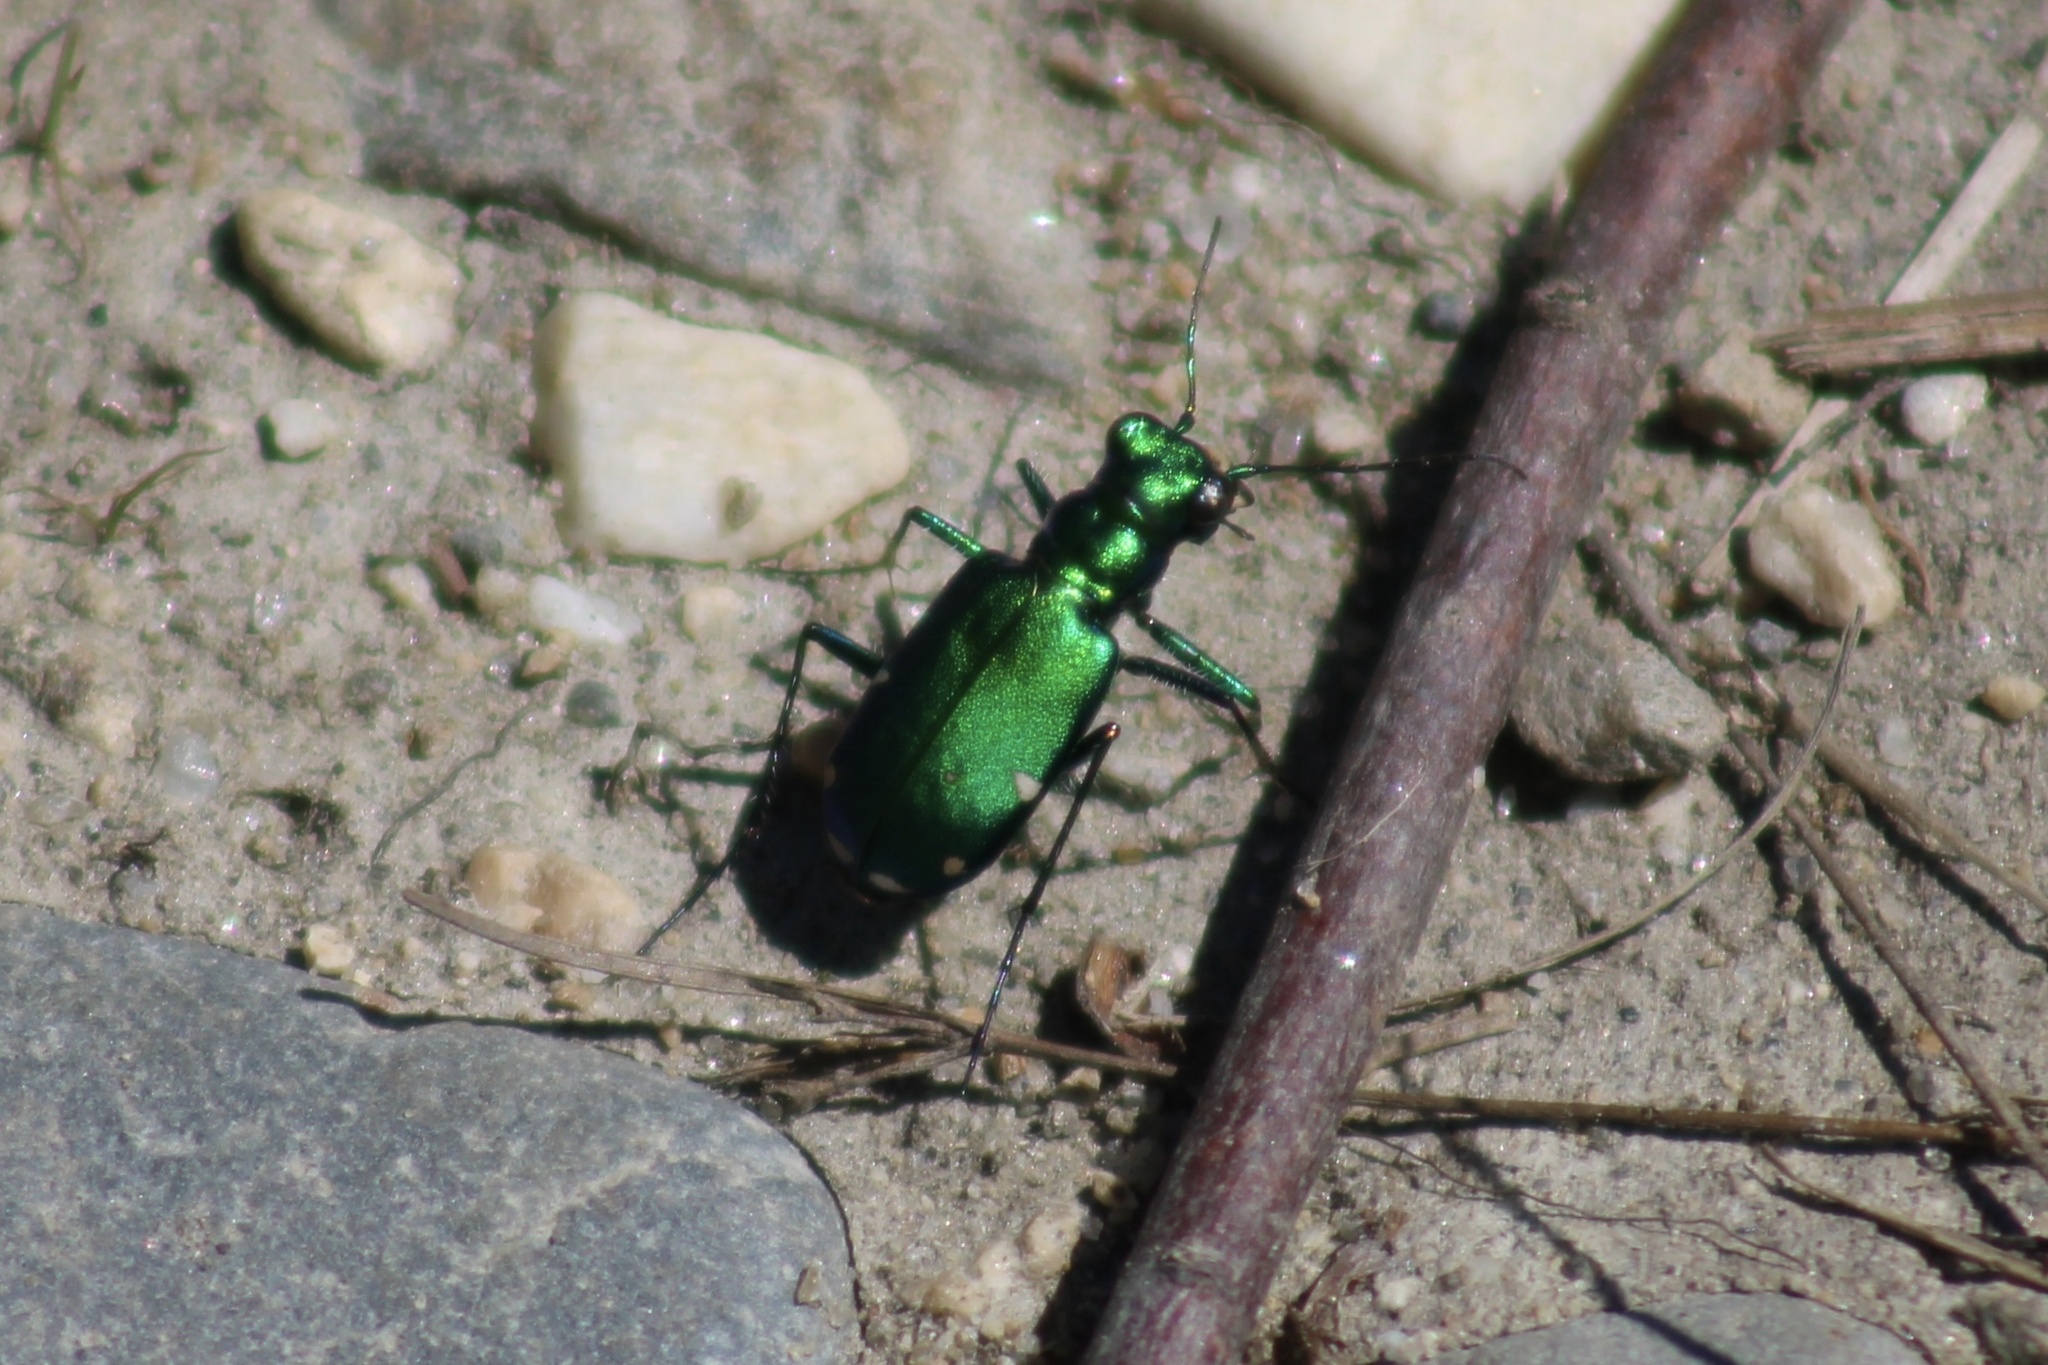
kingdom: Animalia
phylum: Arthropoda
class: Insecta
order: Coleoptera
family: Carabidae
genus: Cicindela
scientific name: Cicindela sexguttata
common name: Six-spotted tiger beetle
